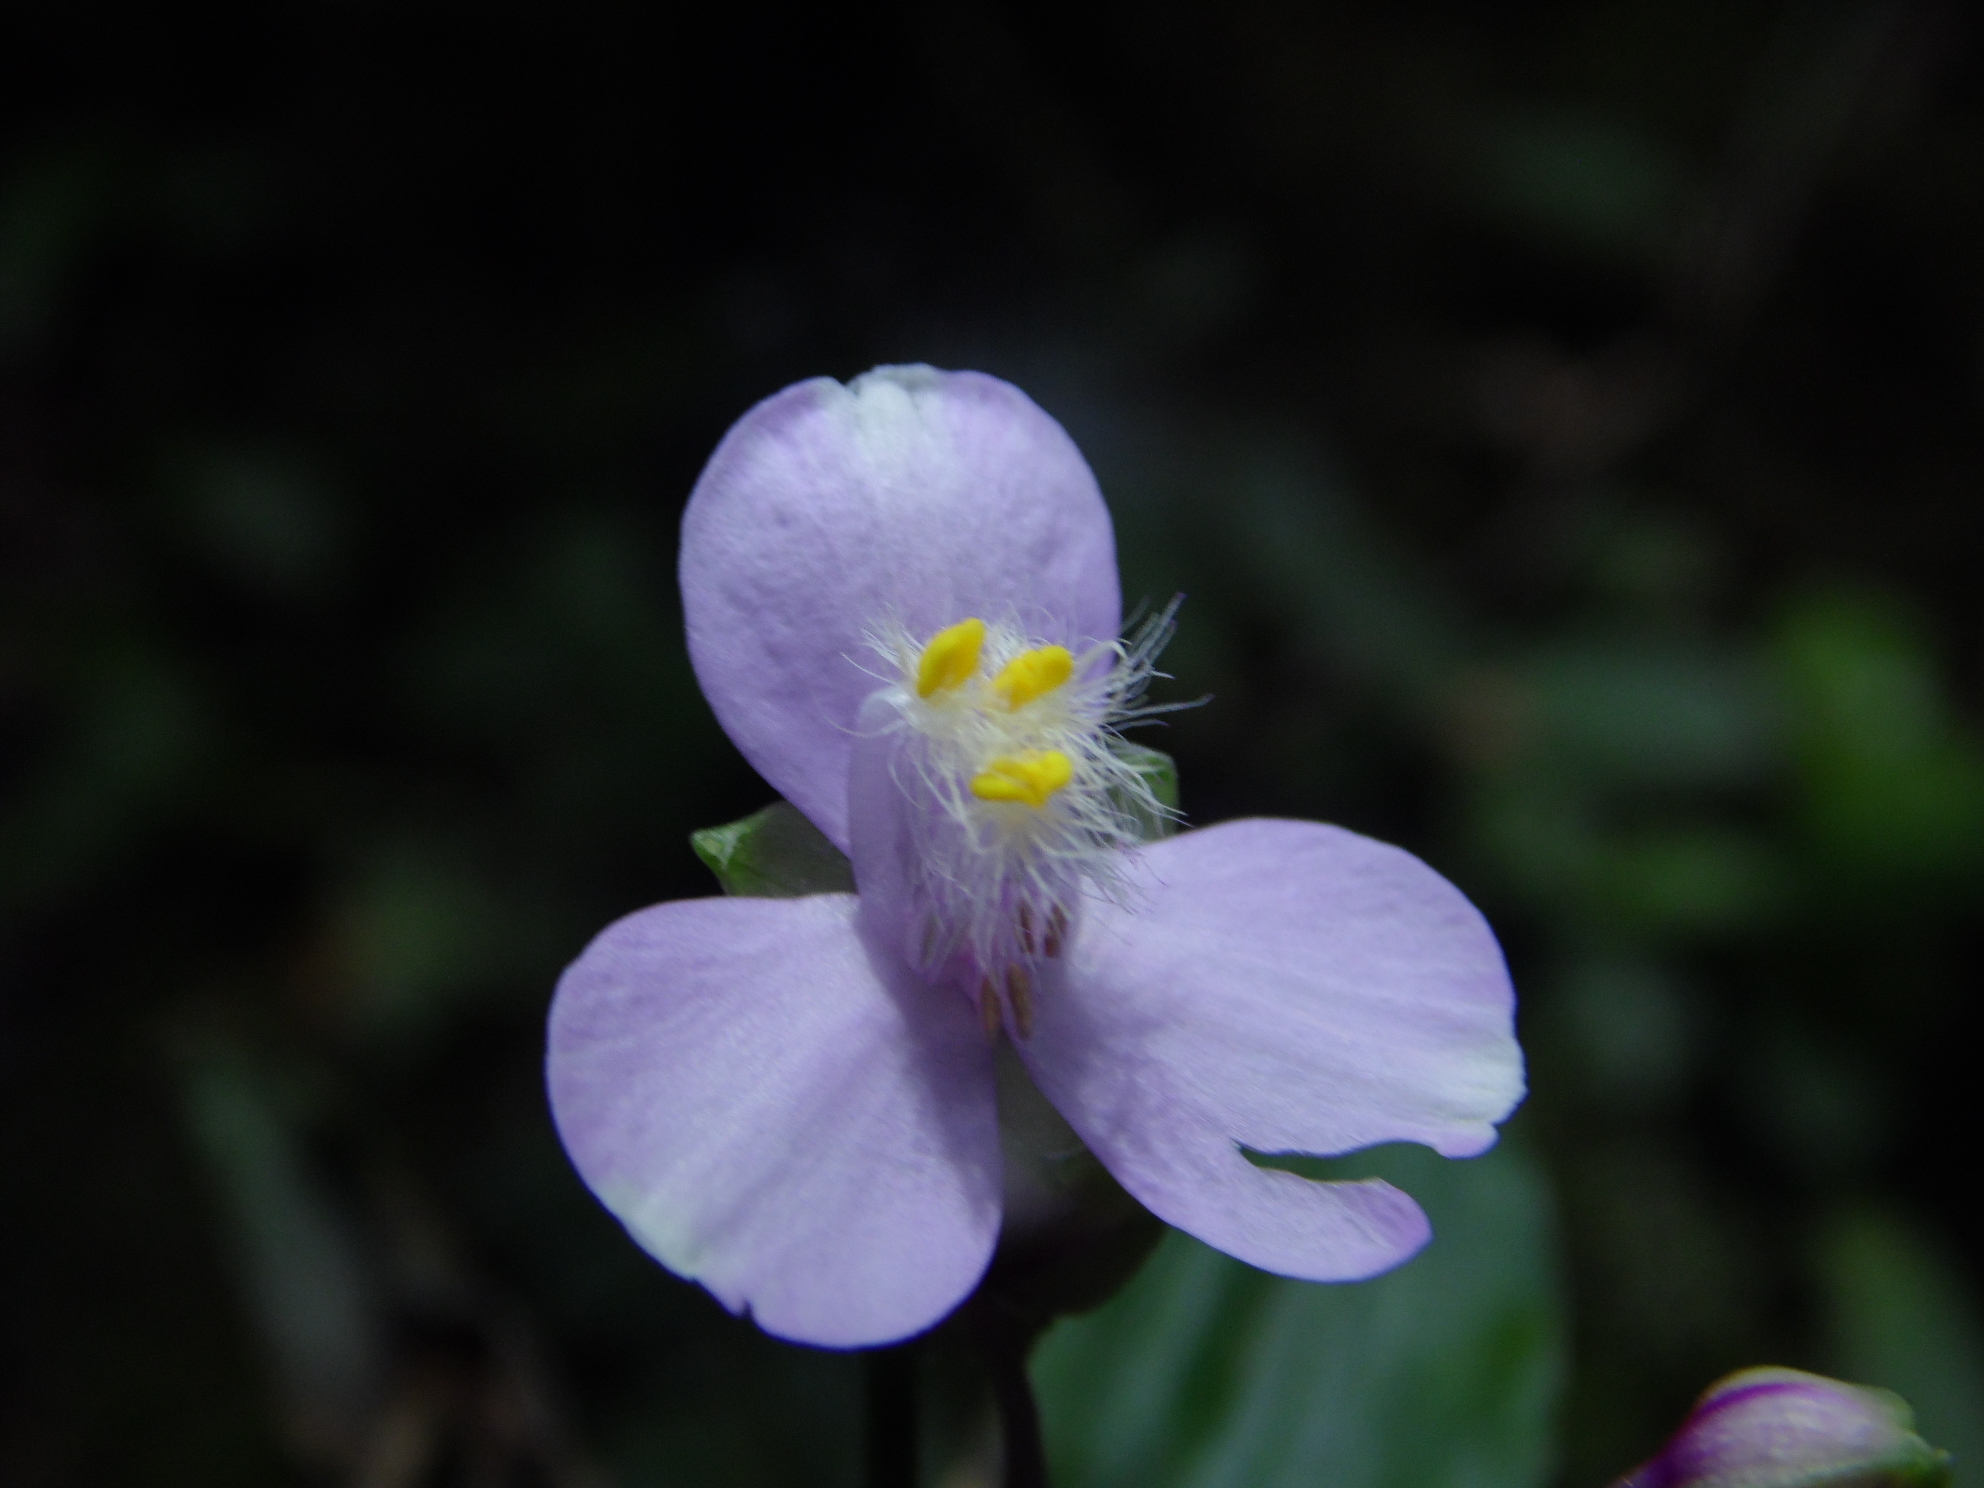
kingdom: Plantae
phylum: Tracheophyta
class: Liliopsida
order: Commelinales
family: Commelinaceae
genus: Callisia
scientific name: Callisia diuretica
